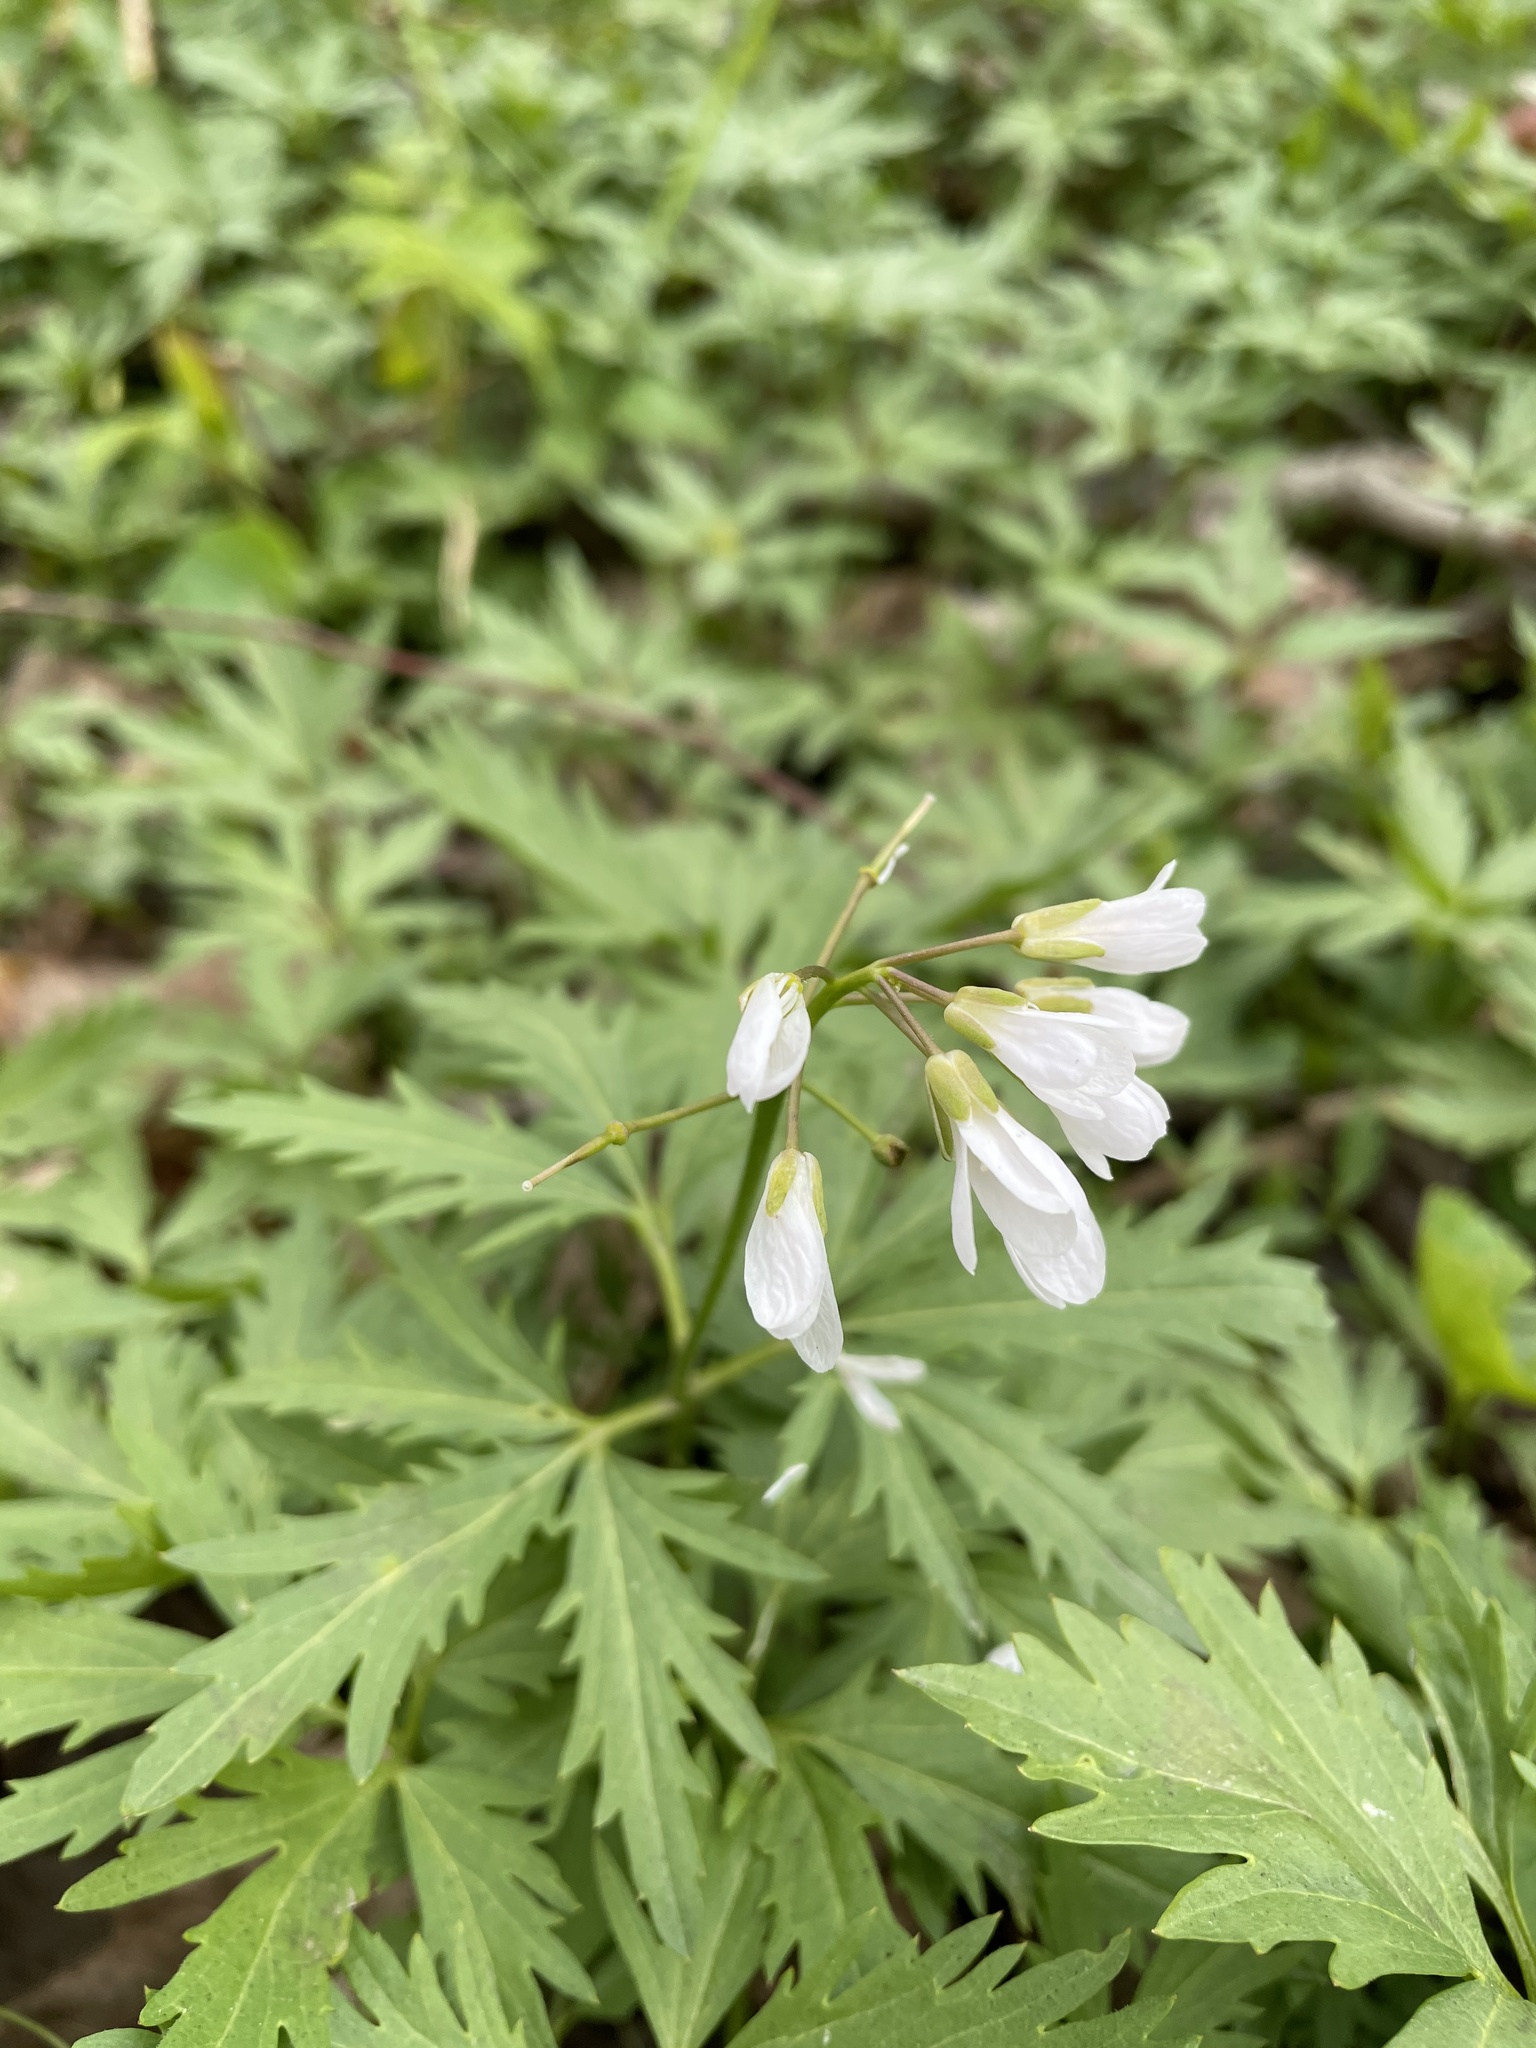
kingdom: Plantae
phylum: Tracheophyta
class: Magnoliopsida
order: Brassicales
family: Brassicaceae
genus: Cardamine
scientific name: Cardamine concatenata
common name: Cut-leaf toothcup
